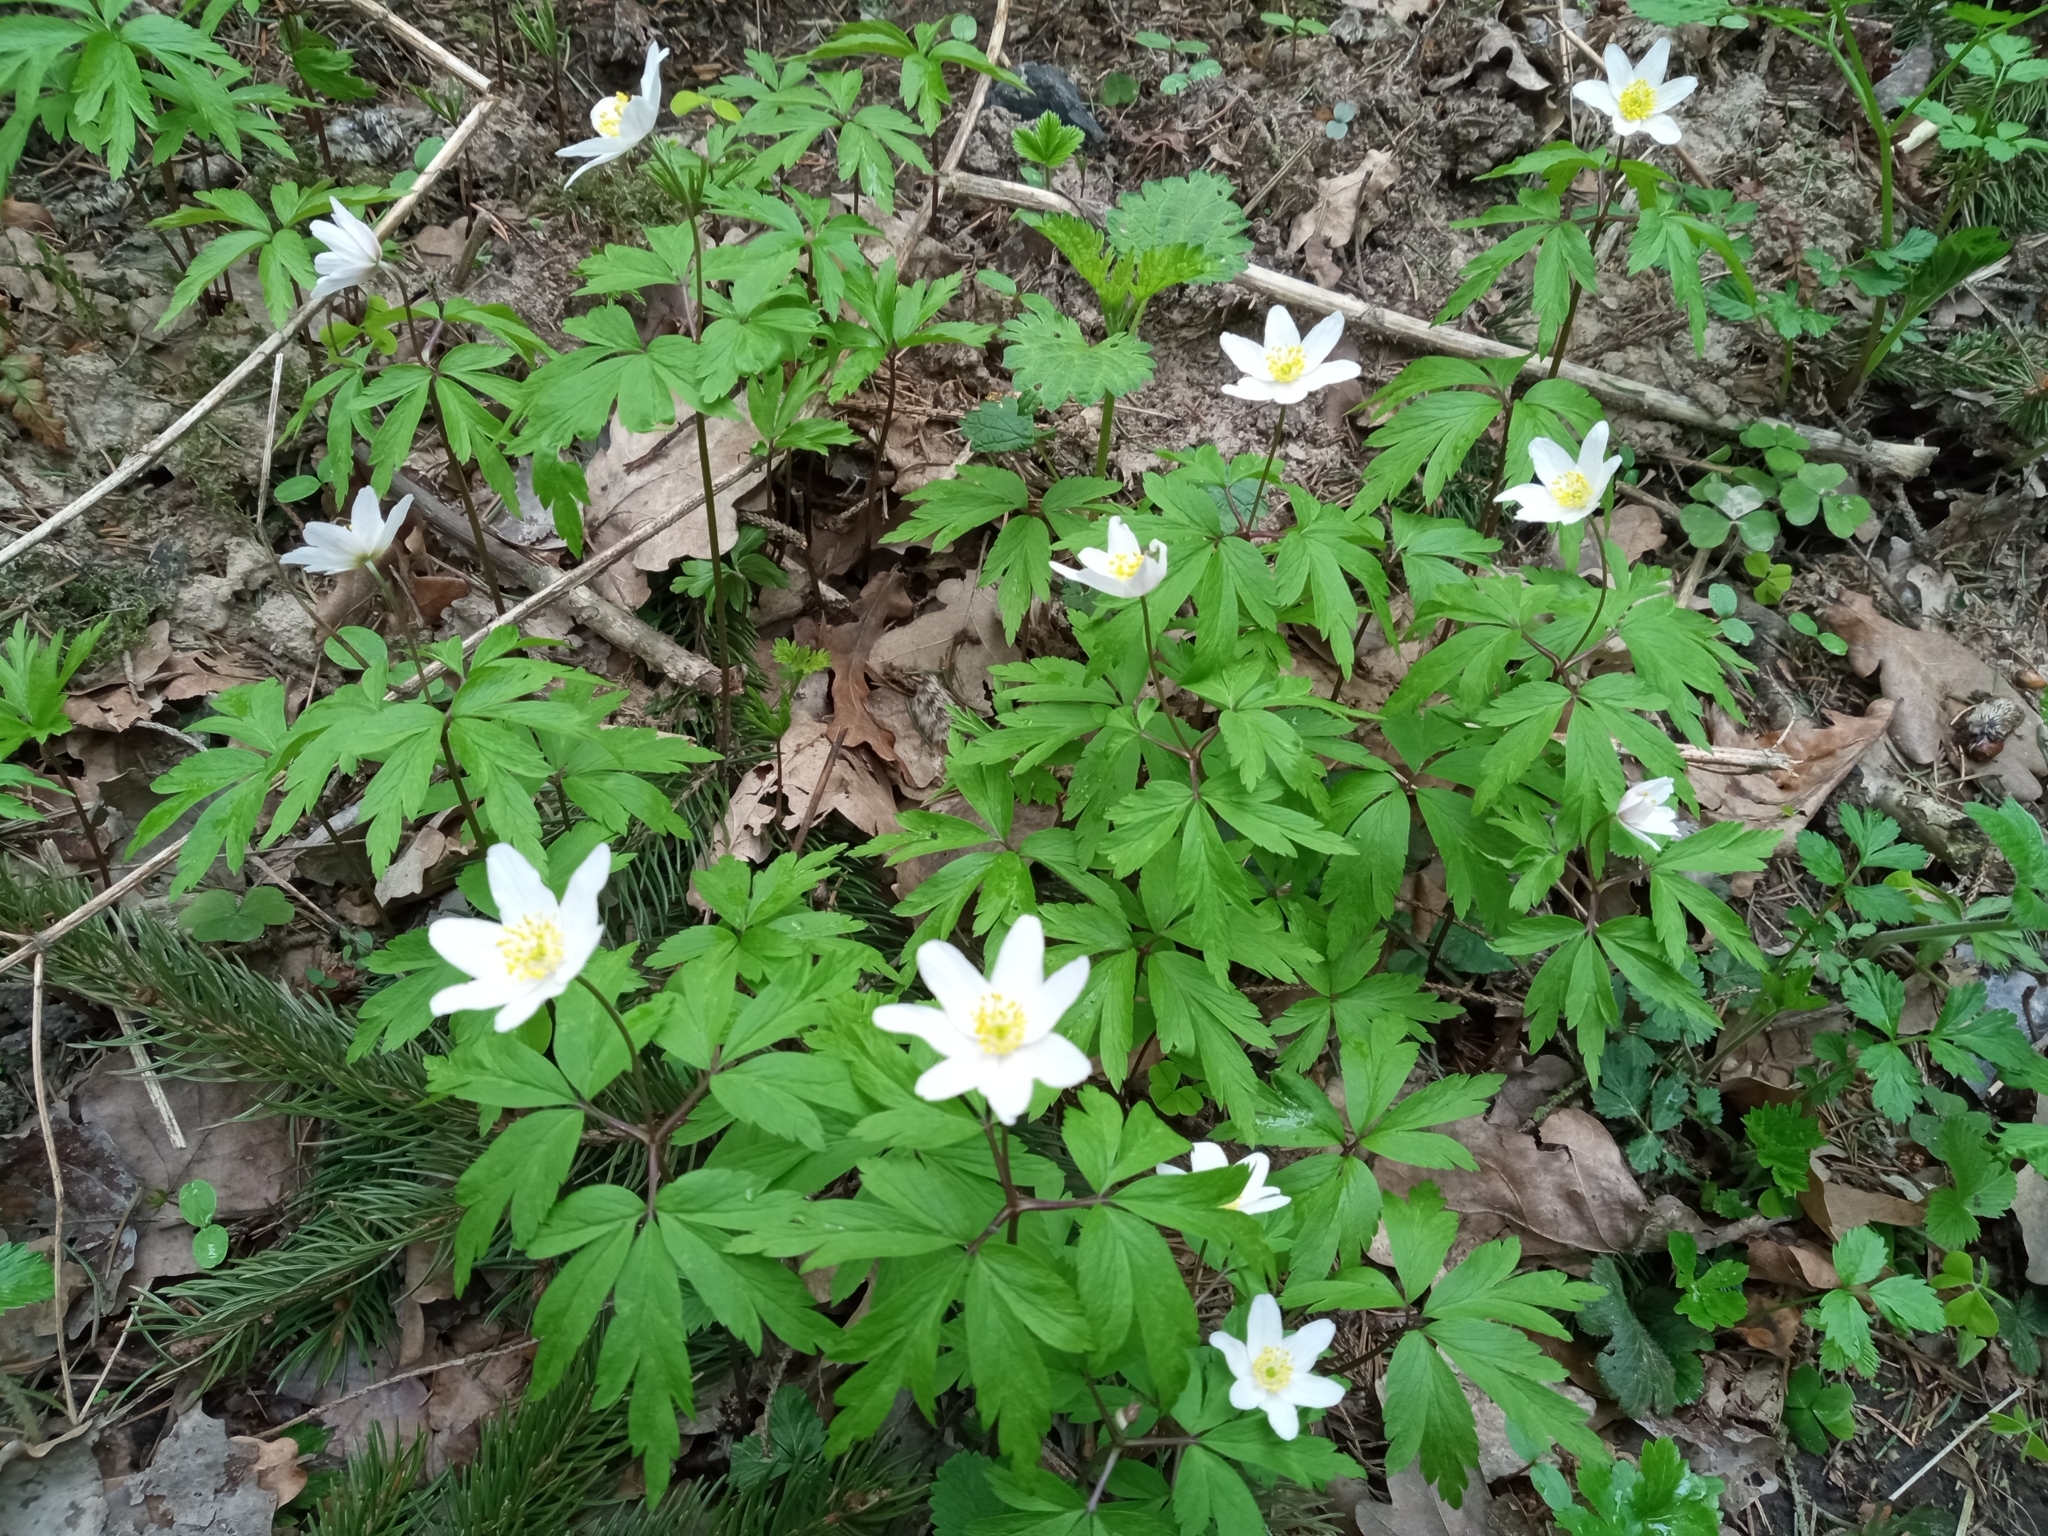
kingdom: Plantae
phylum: Tracheophyta
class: Magnoliopsida
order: Ranunculales
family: Ranunculaceae
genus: Anemone
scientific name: Anemone nemorosa
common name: Wood anemone
